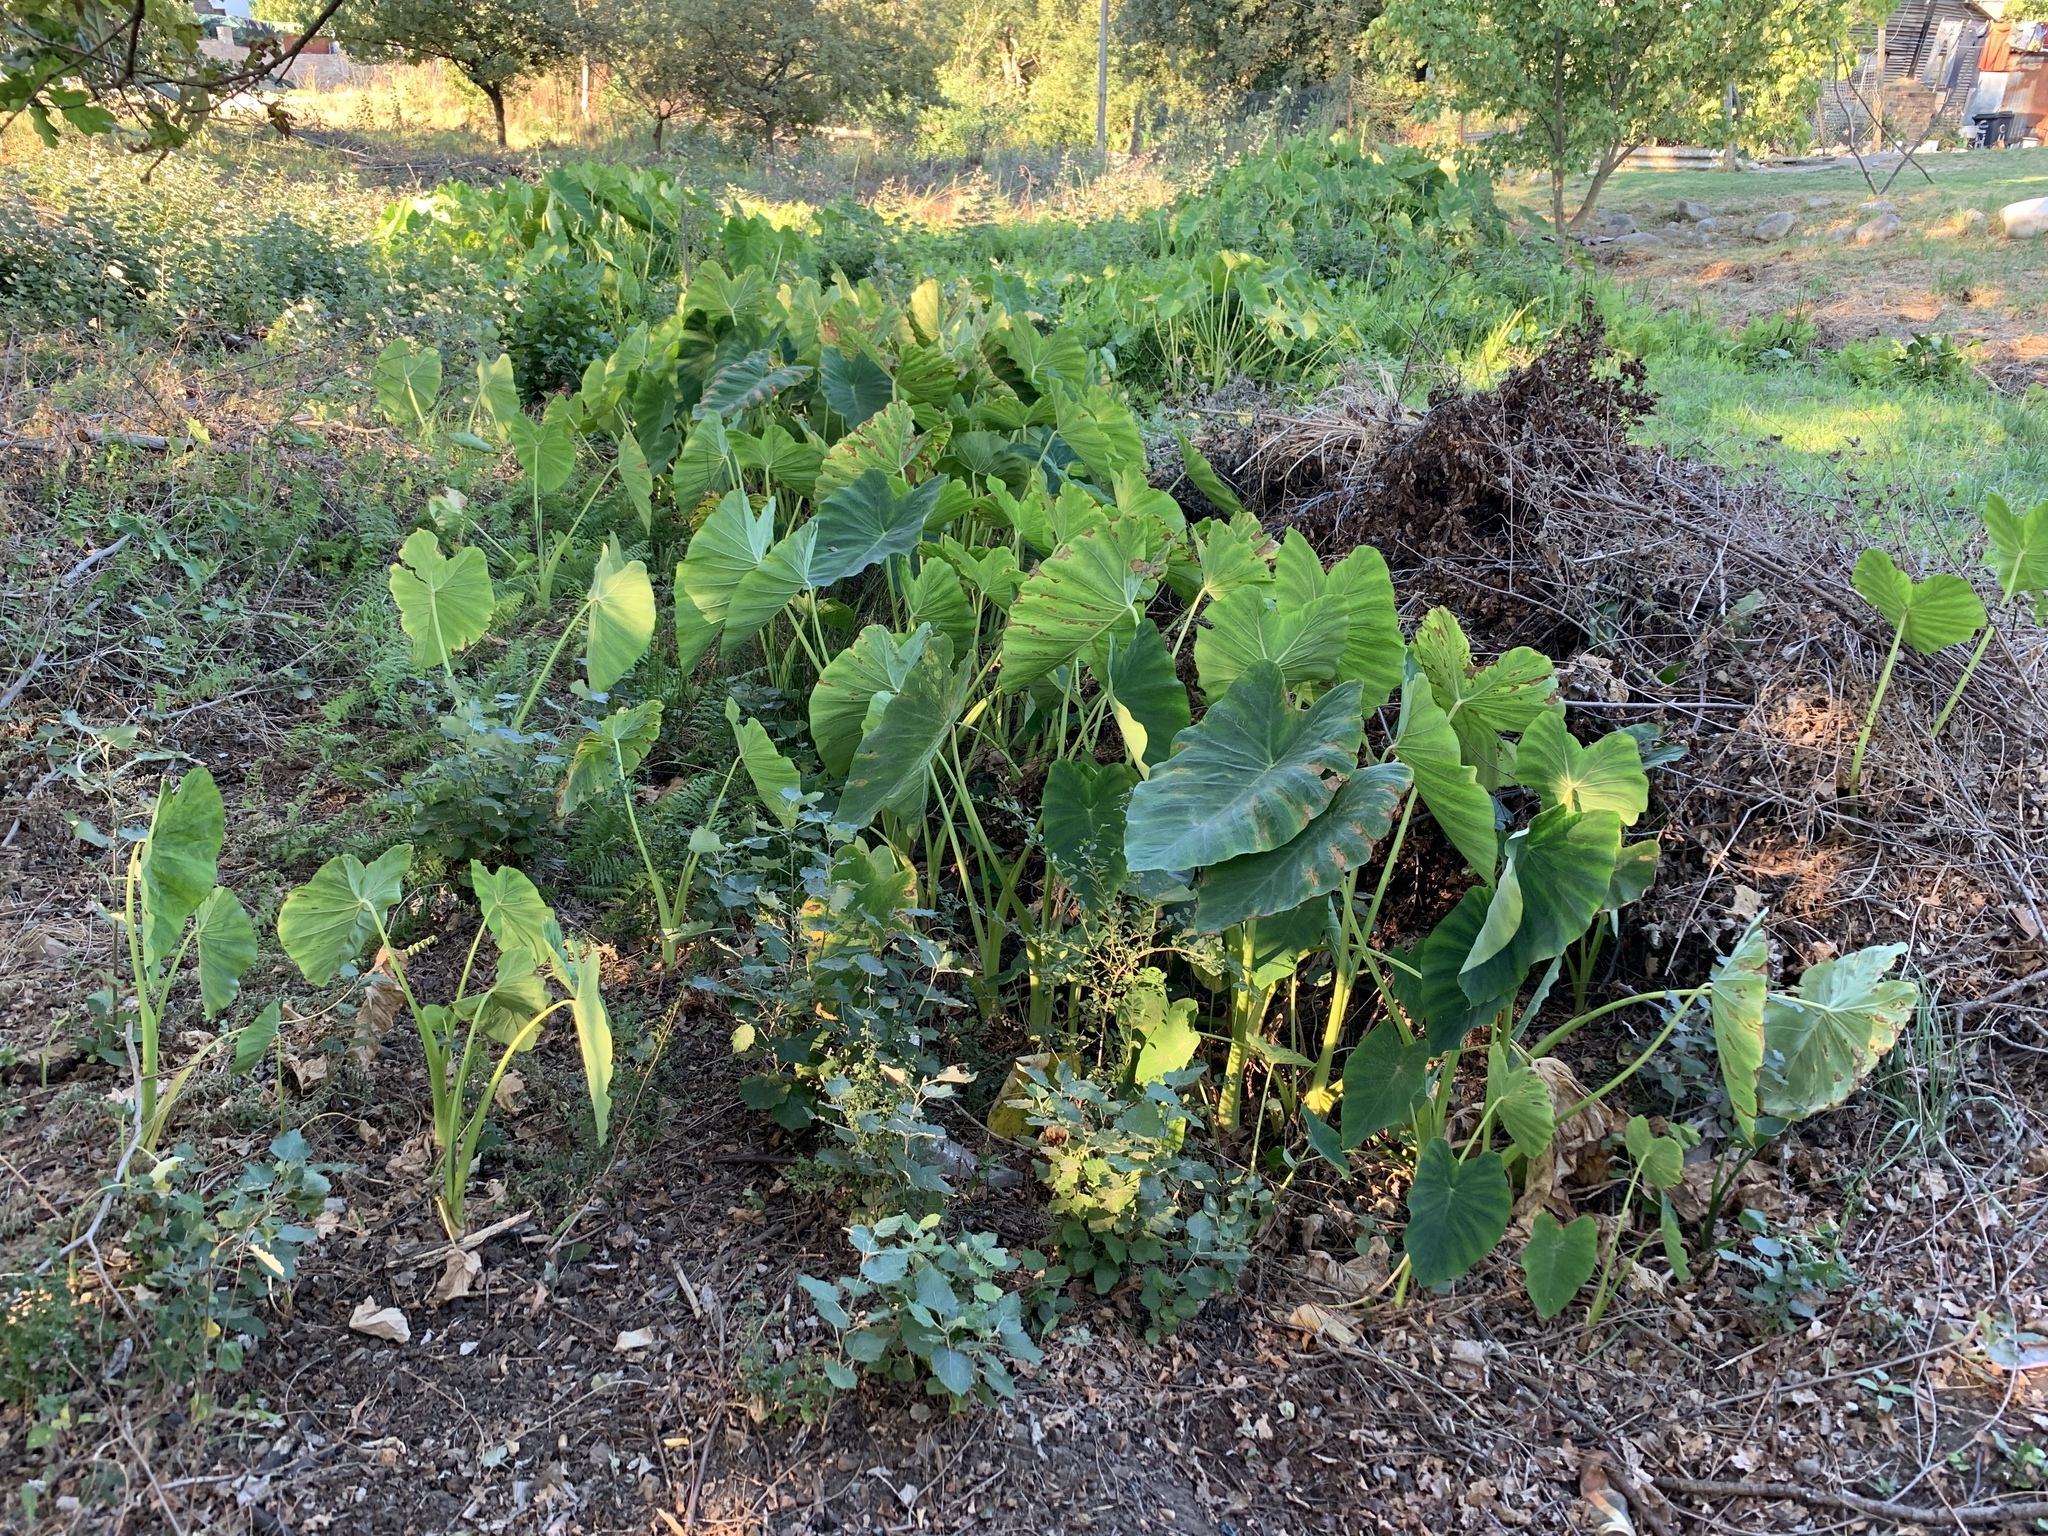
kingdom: Plantae
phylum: Tracheophyta
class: Liliopsida
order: Alismatales
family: Araceae
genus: Colocasia
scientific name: Colocasia esculenta
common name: Taro
